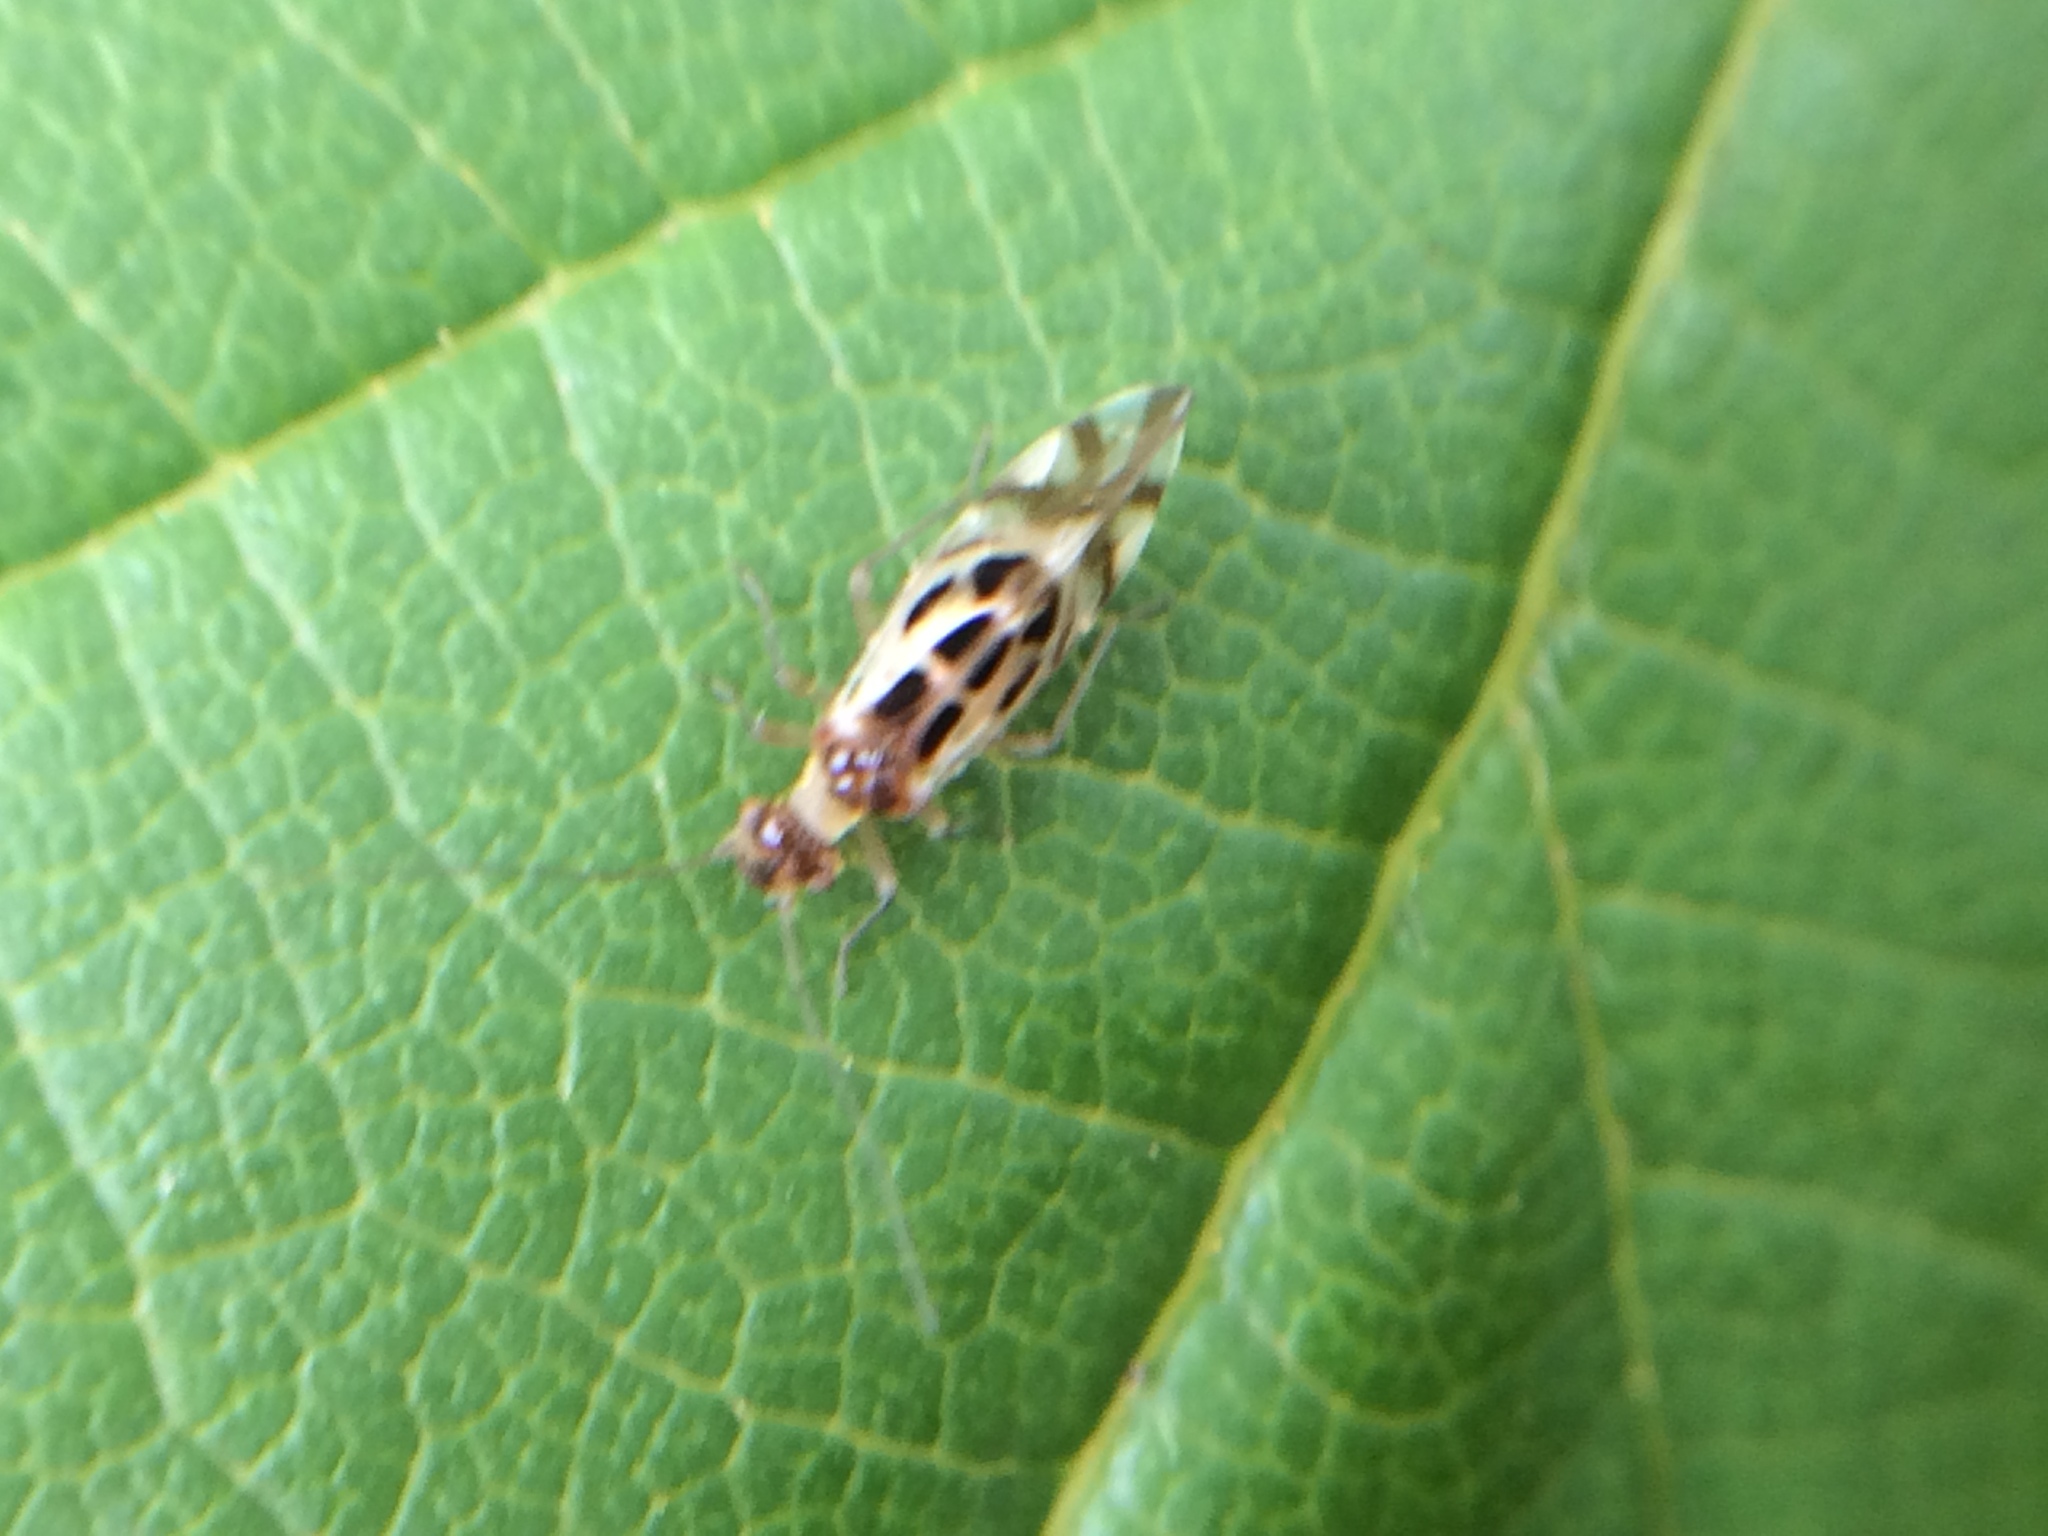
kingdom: Animalia
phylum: Arthropoda
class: Insecta
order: Psocodea
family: Stenopsocidae
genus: Graphopsocus
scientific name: Graphopsocus cruciatus
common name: Lizard bark louse
